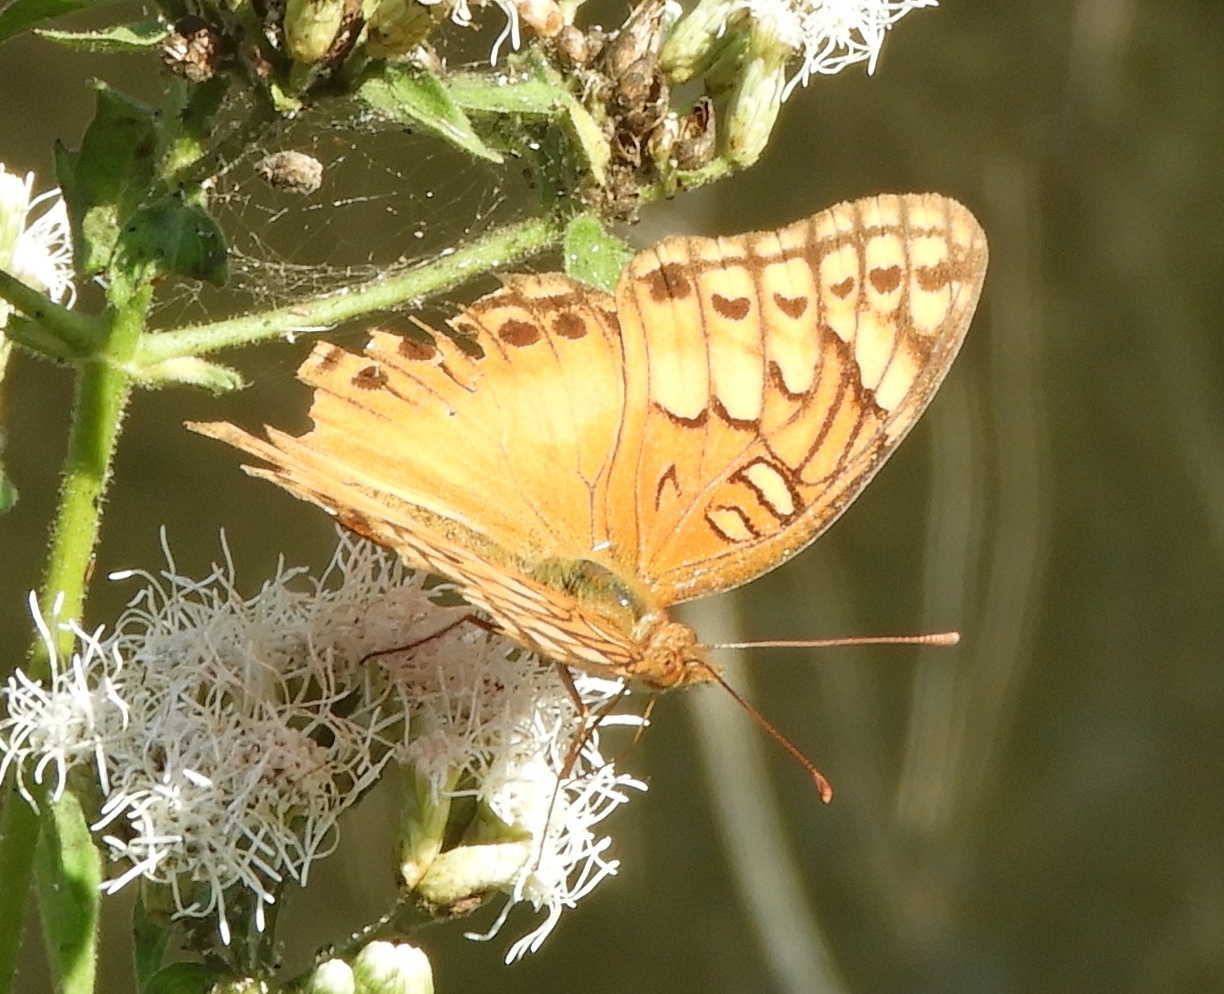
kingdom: Animalia
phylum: Arthropoda
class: Insecta
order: Lepidoptera
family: Nymphalidae
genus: Euptoieta
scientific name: Euptoieta hegesia
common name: Mexican fritillary
